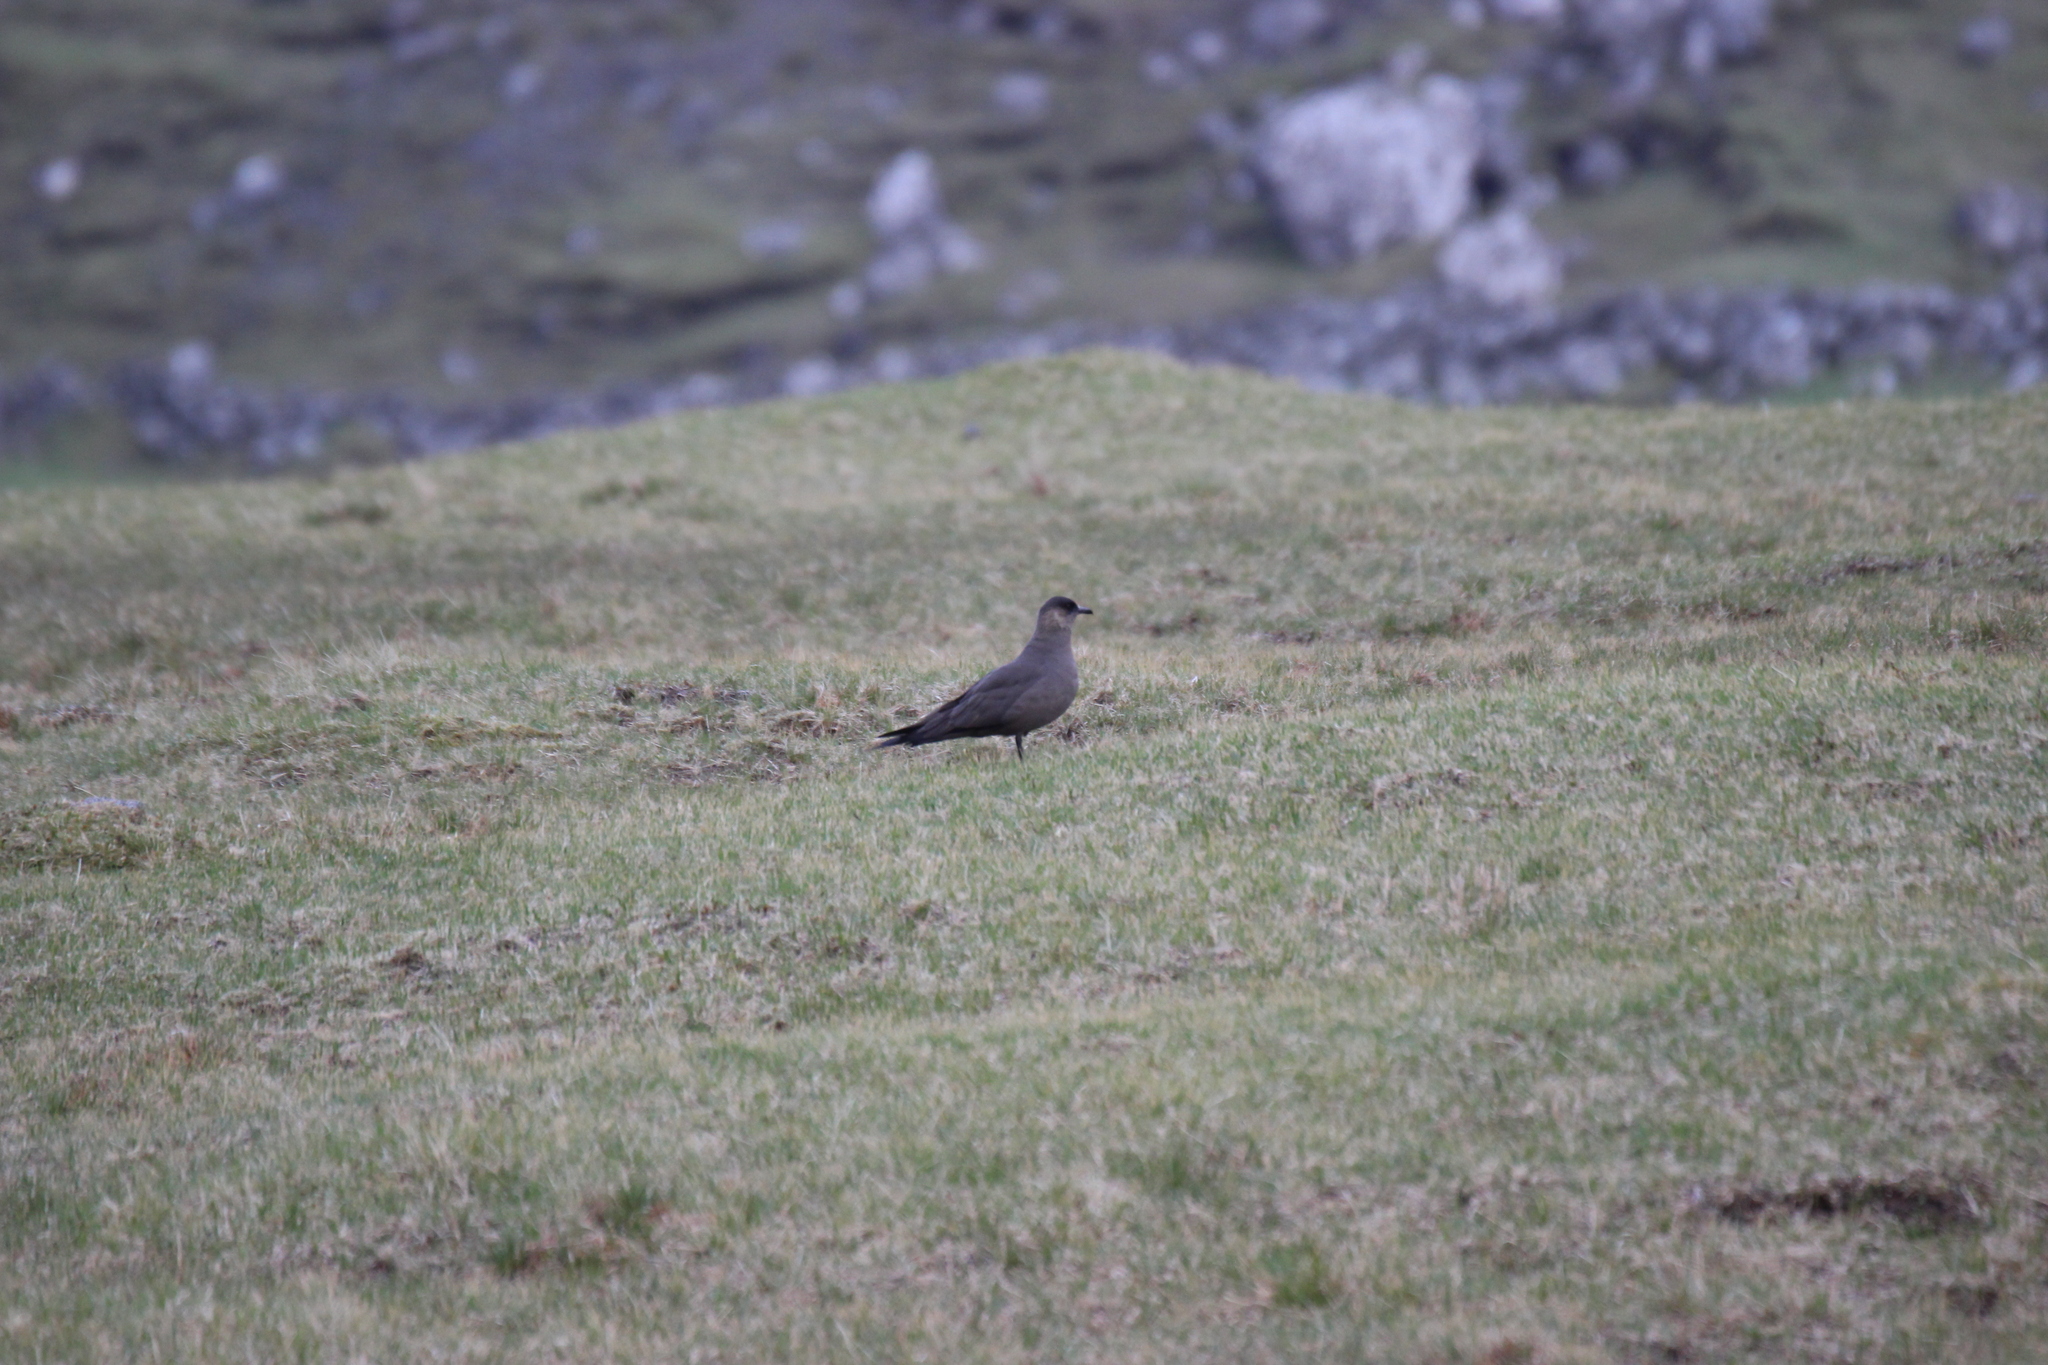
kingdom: Animalia
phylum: Chordata
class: Aves
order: Charadriiformes
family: Stercorariidae
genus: Stercorarius
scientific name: Stercorarius parasiticus
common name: Parasitic jaeger
